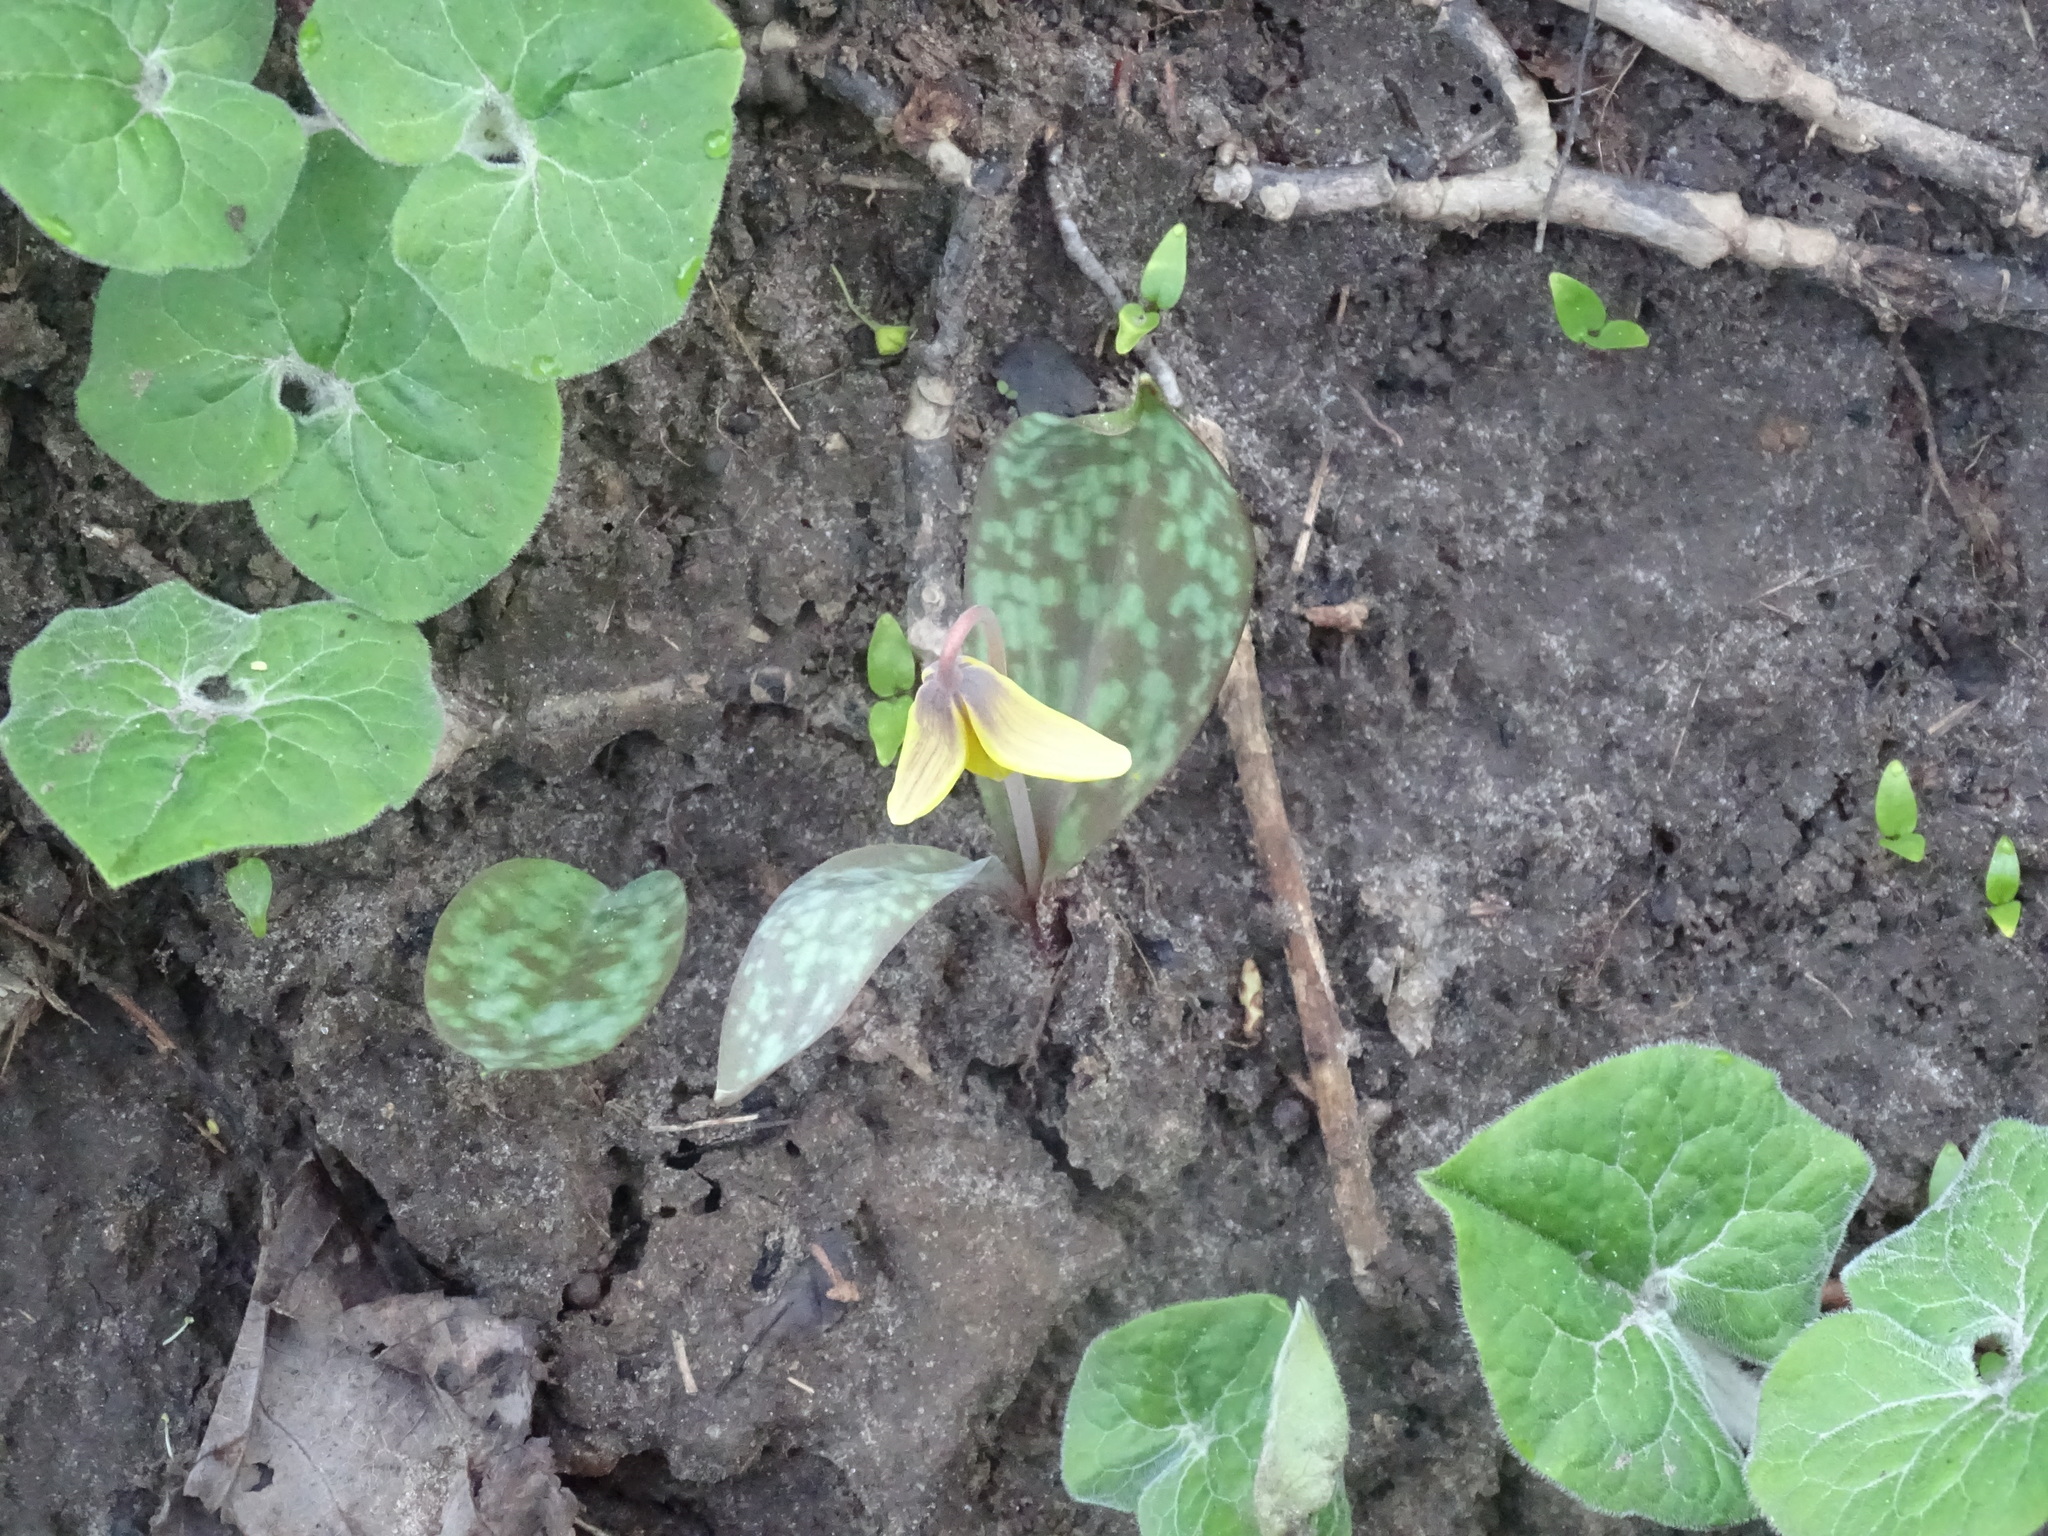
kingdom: Plantae
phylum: Tracheophyta
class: Liliopsida
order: Liliales
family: Liliaceae
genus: Erythronium
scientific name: Erythronium americanum
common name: Yellow adder's-tongue
